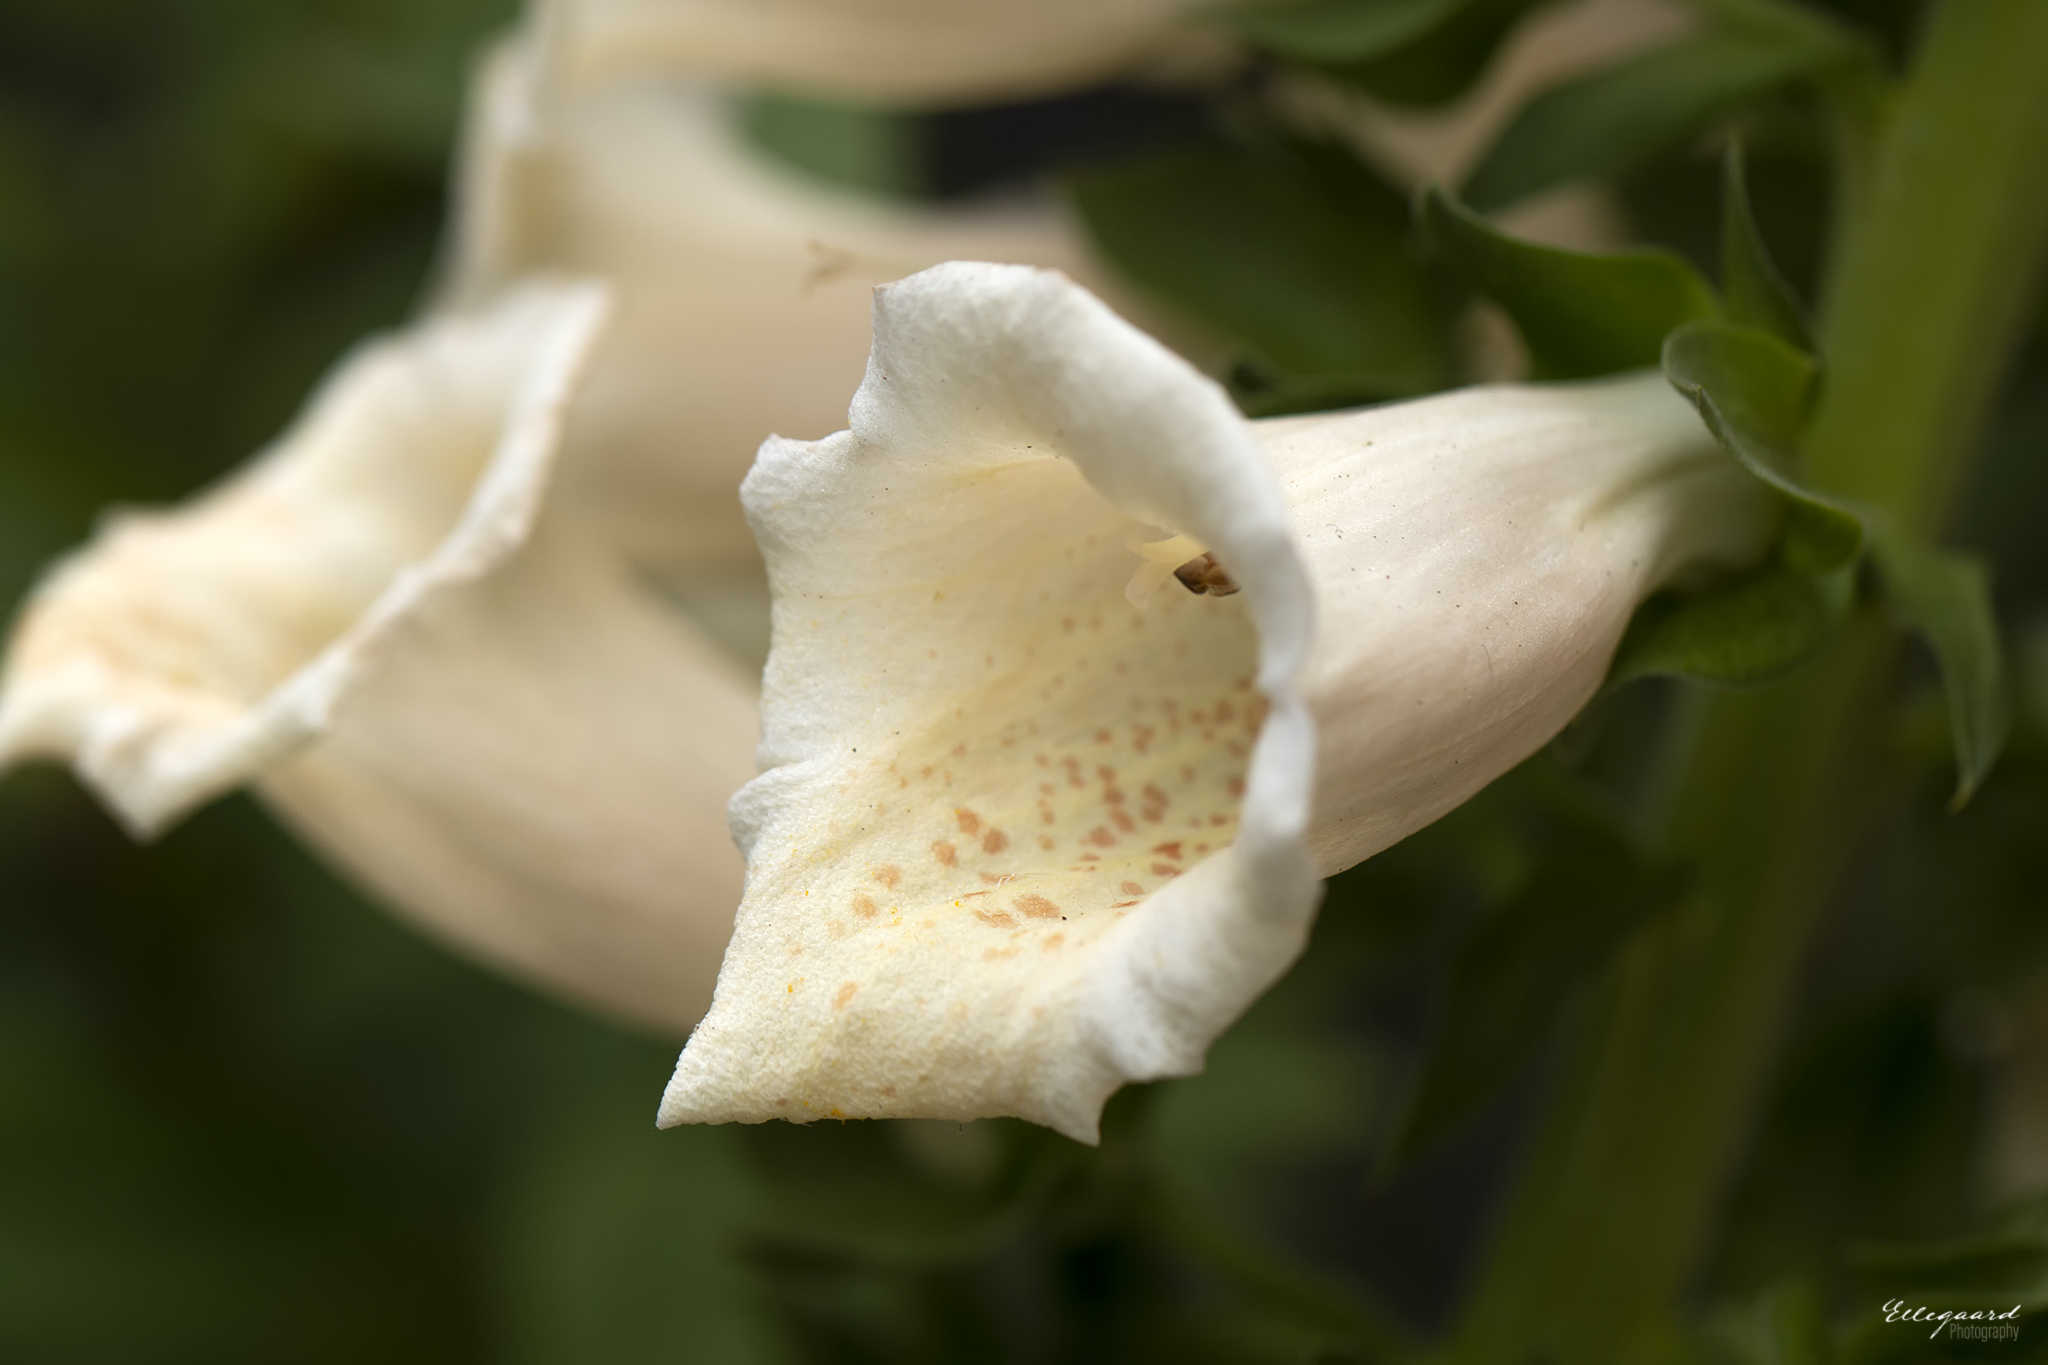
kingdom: Plantae
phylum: Tracheophyta
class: Magnoliopsida
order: Lamiales
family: Plantaginaceae
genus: Digitalis
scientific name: Digitalis purpurea
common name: Foxglove
